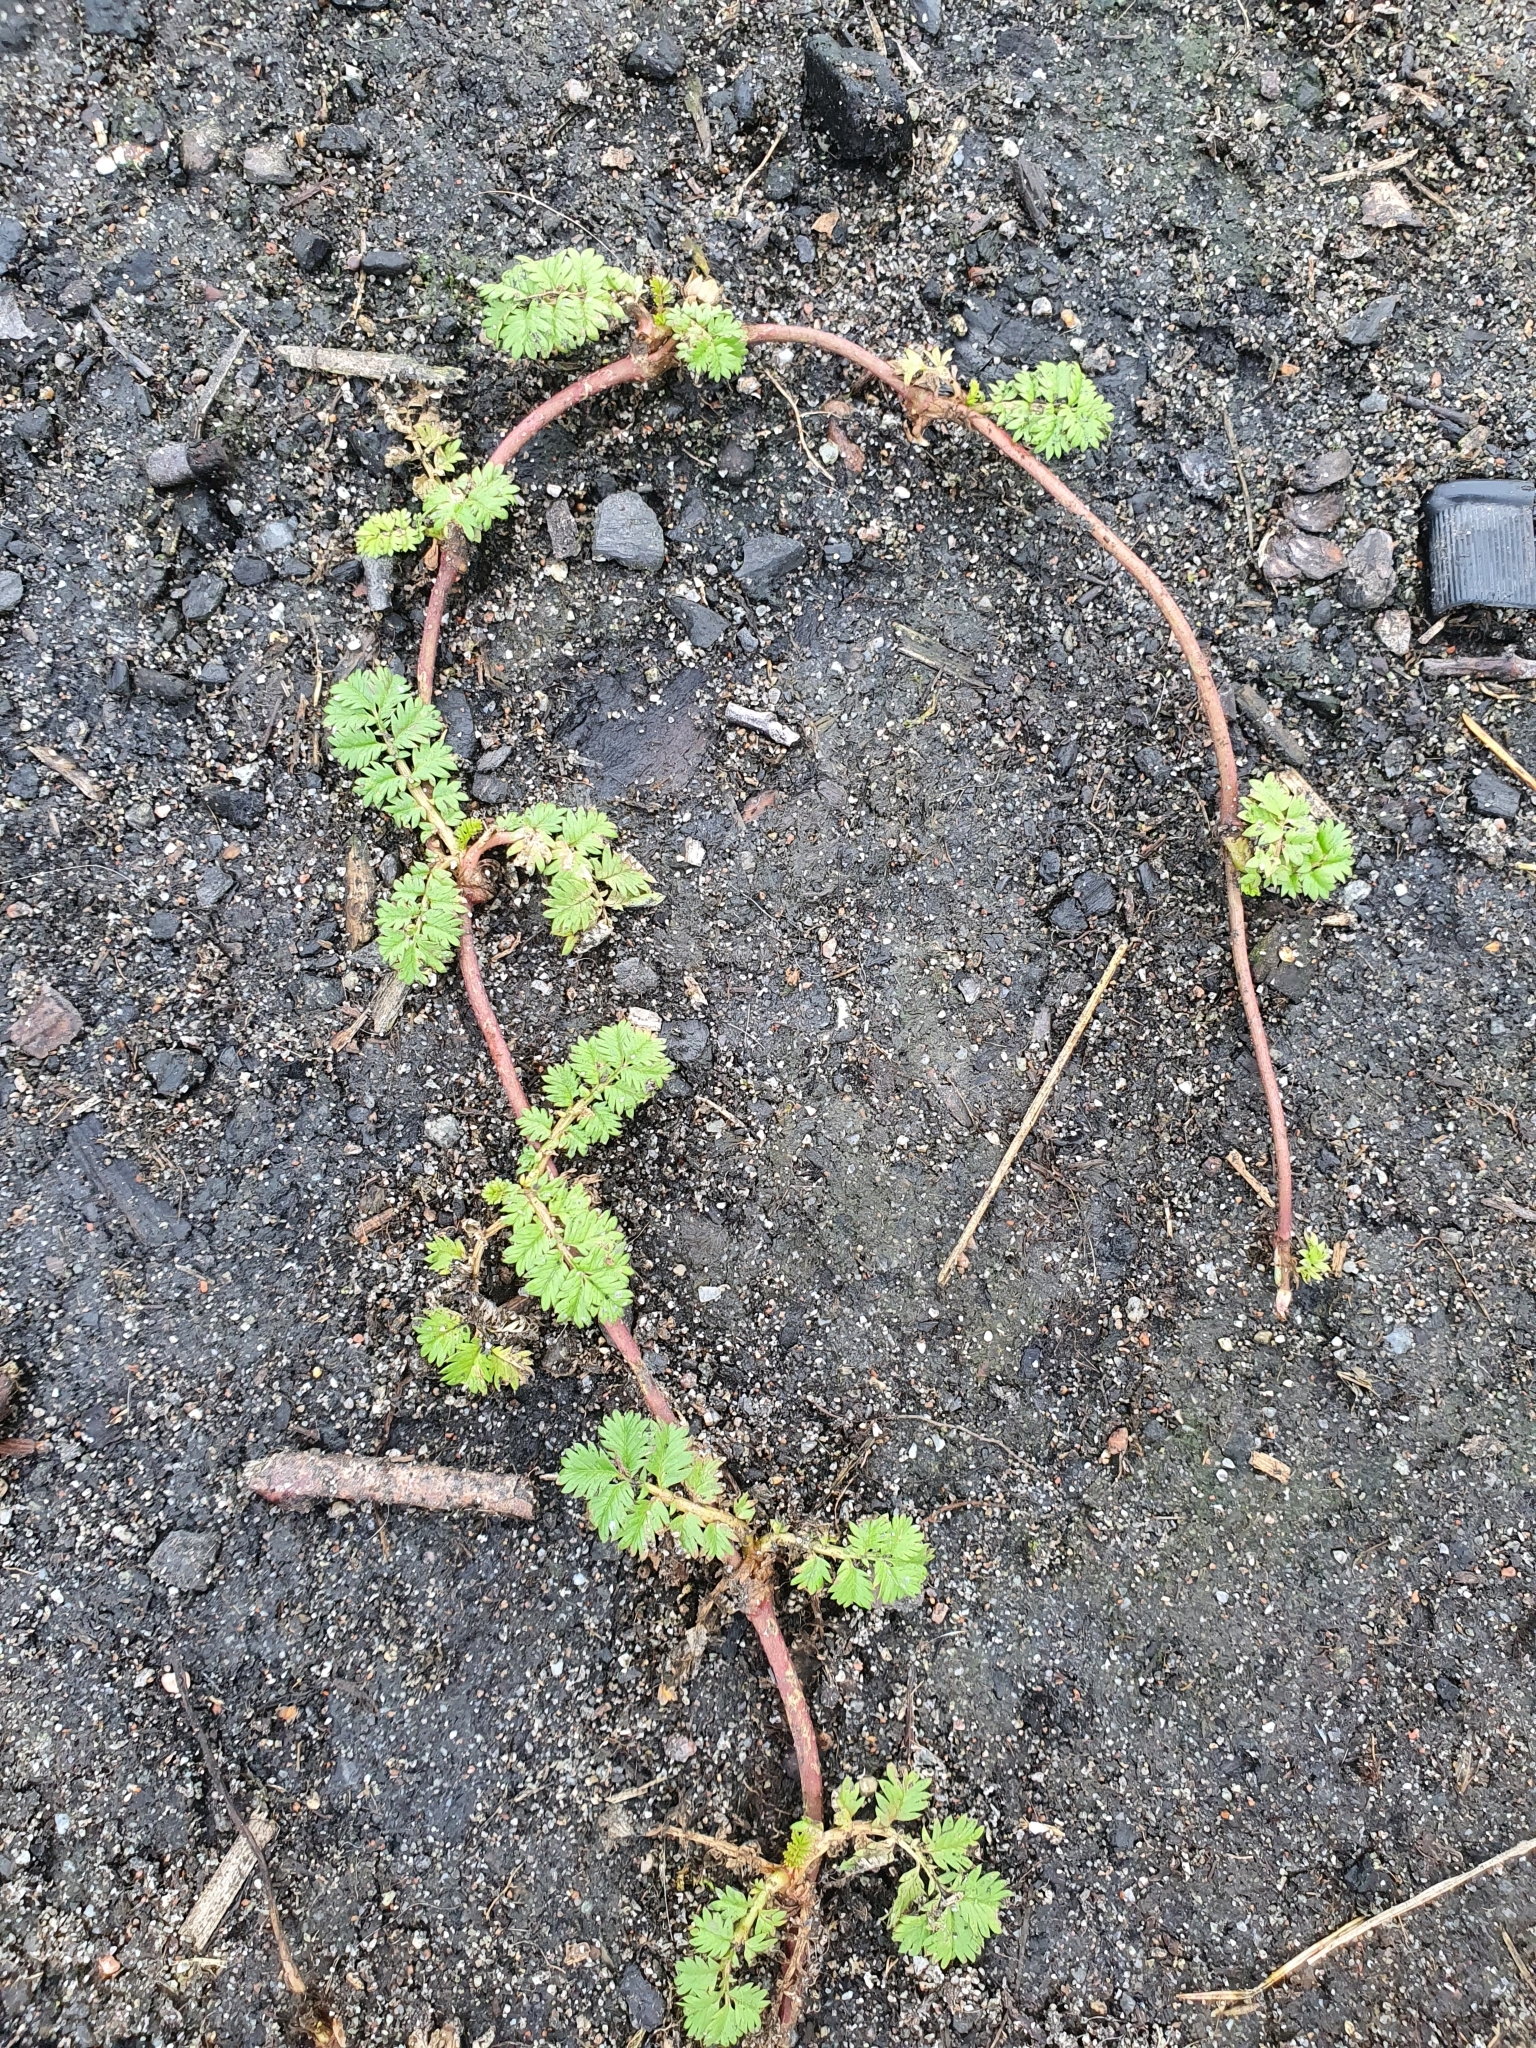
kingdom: Plantae
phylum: Tracheophyta
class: Magnoliopsida
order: Rosales
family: Rosaceae
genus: Argentina
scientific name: Argentina anserina
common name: Common silverweed
